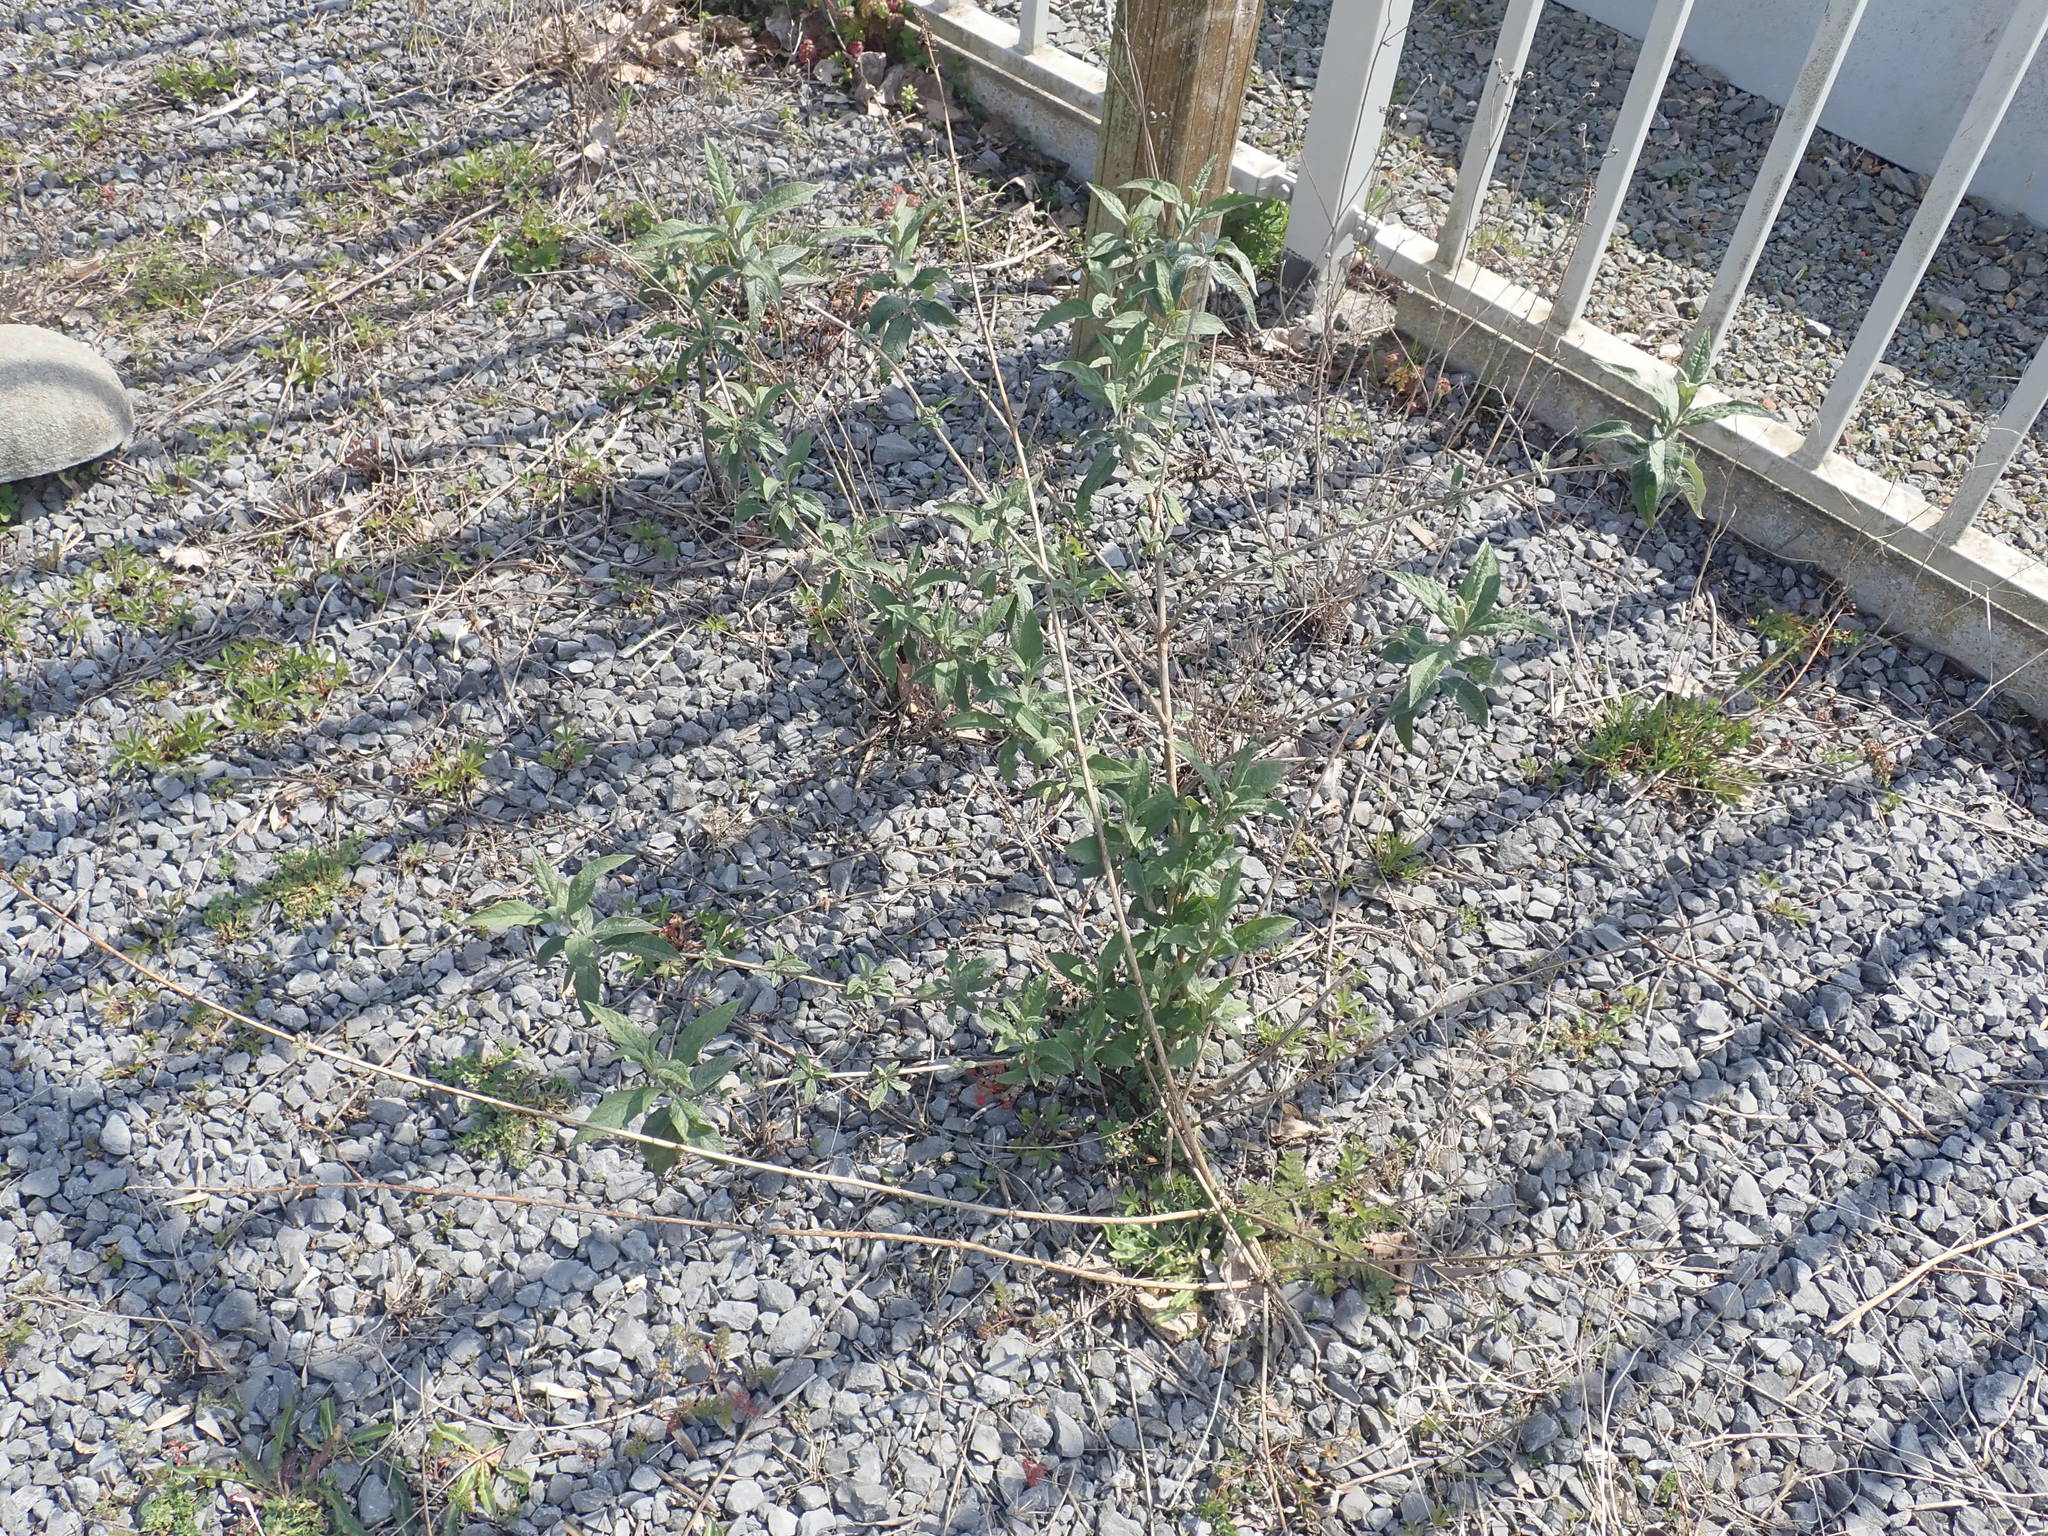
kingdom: Plantae
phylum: Tracheophyta
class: Magnoliopsida
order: Lamiales
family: Scrophulariaceae
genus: Buddleja
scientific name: Buddleja davidii
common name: Butterfly-bush
